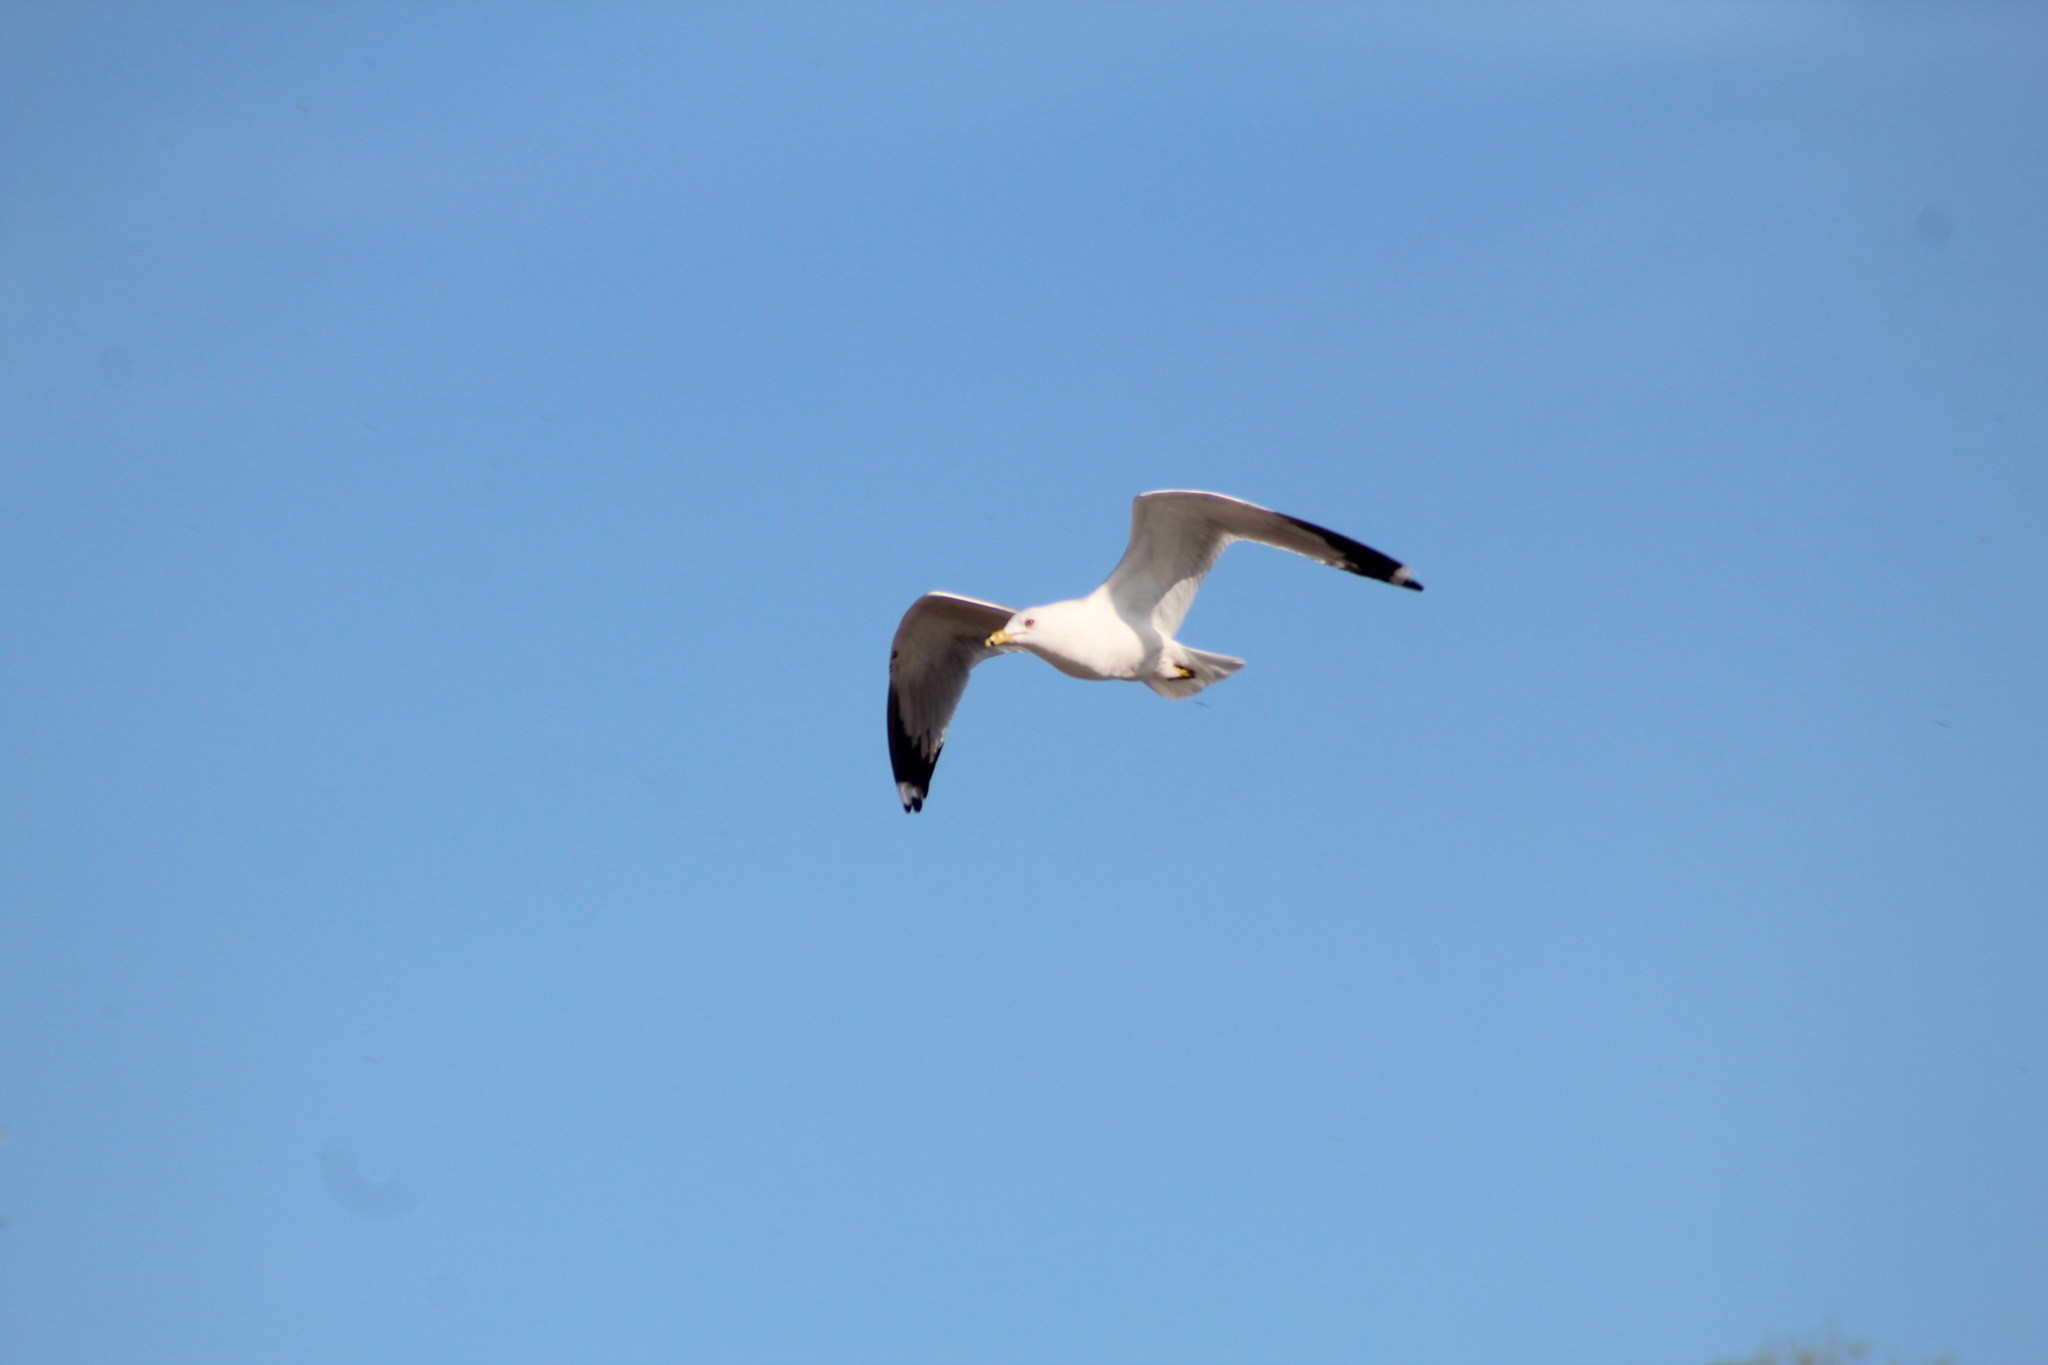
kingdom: Animalia
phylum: Chordata
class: Aves
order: Charadriiformes
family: Laridae
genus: Larus
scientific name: Larus delawarensis
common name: Ring-billed gull
